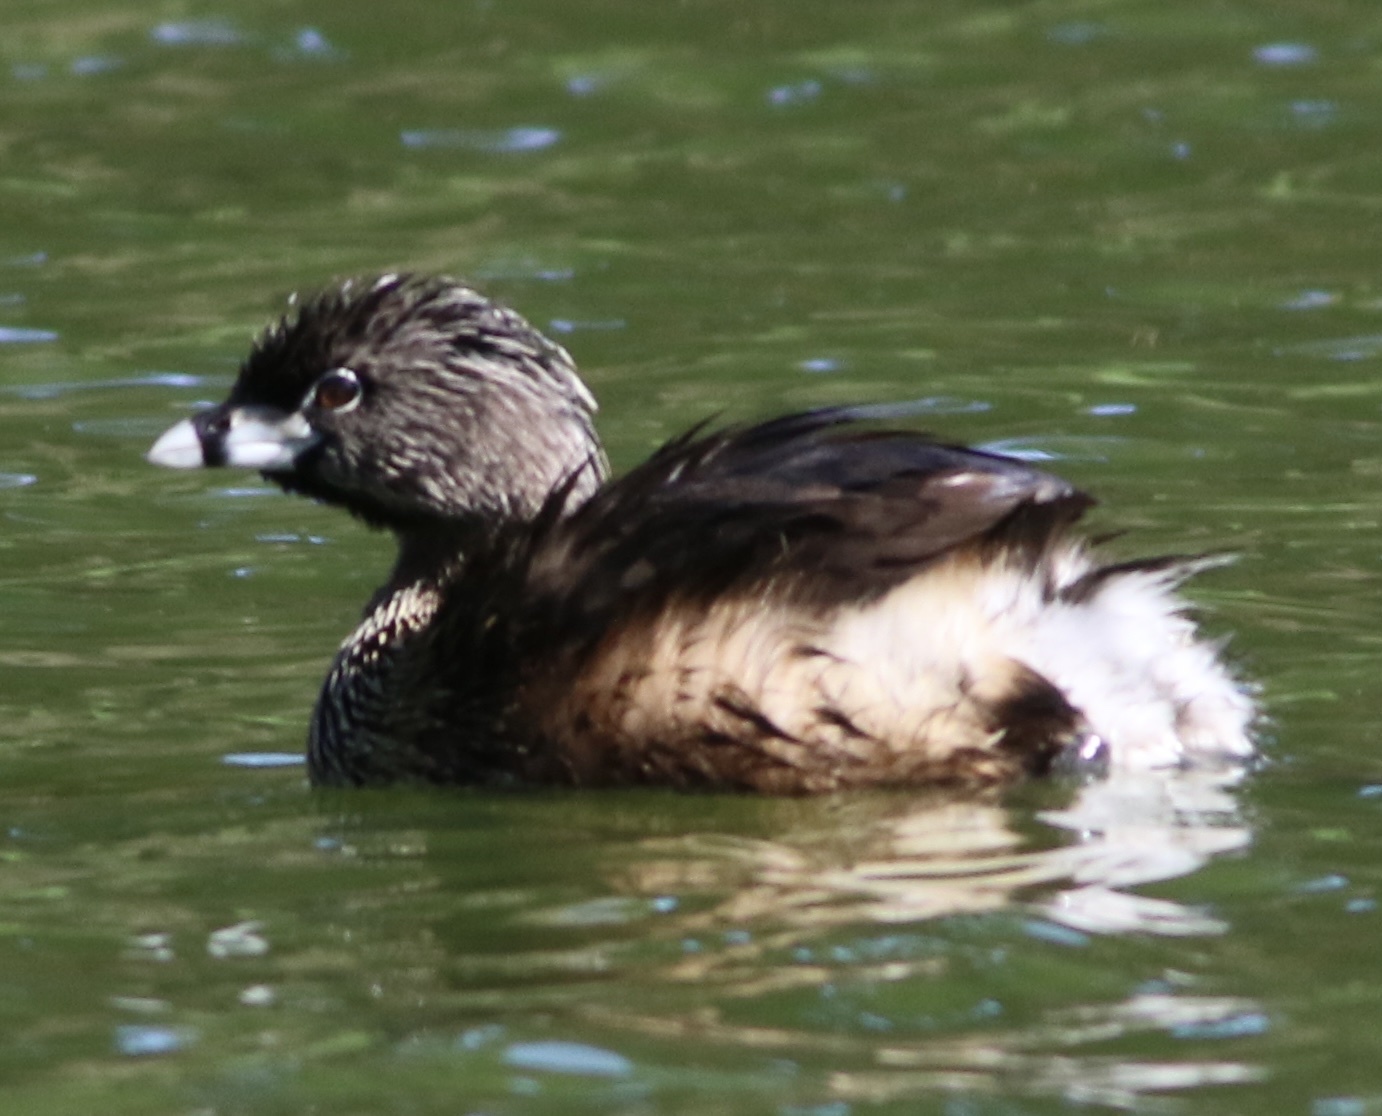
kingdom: Animalia
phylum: Chordata
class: Aves
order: Podicipediformes
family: Podicipedidae
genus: Podilymbus
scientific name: Podilymbus podiceps
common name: Pied-billed grebe
